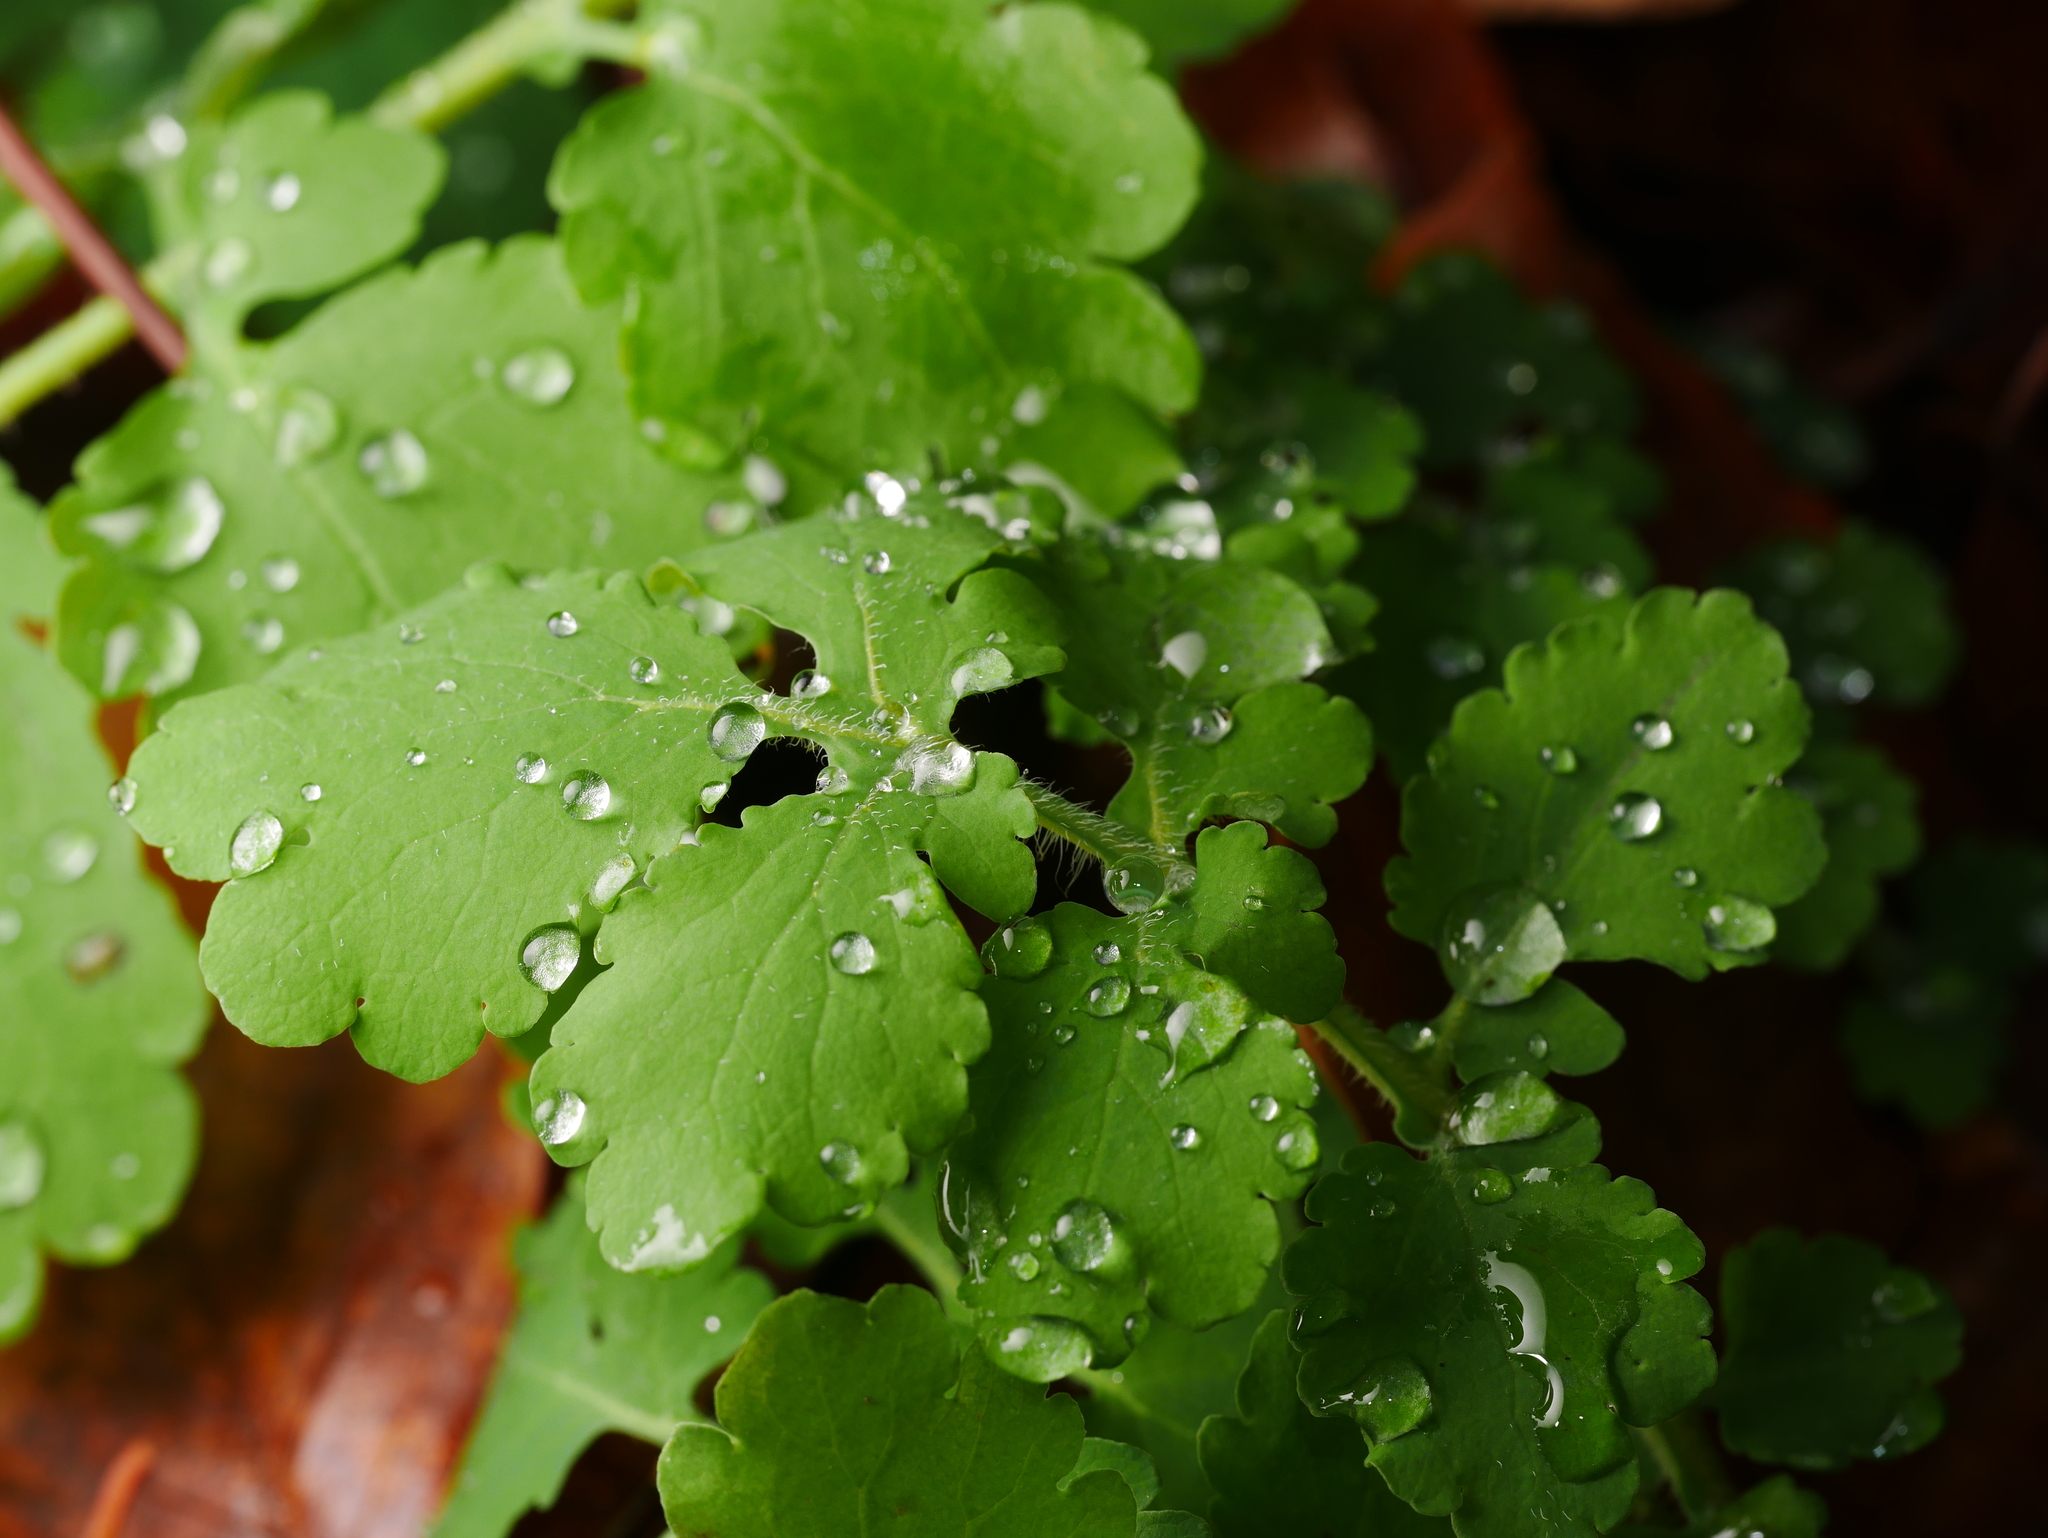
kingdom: Plantae
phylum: Tracheophyta
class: Magnoliopsida
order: Ranunculales
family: Papaveraceae
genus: Chelidonium
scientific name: Chelidonium majus
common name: Greater celandine
